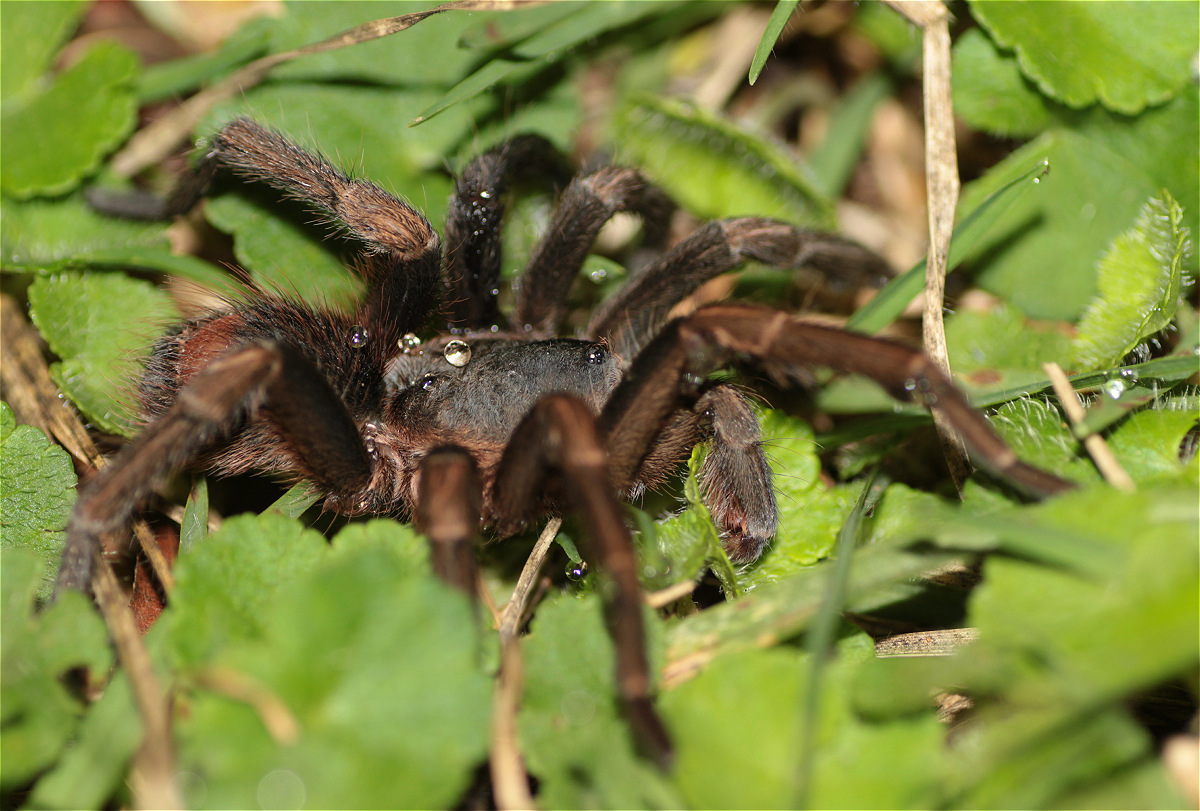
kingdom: Animalia
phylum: Arthropoda
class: Arachnida
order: Araneae
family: Theraphosidae
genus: Cyclosternum
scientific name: Cyclosternum schmardae
